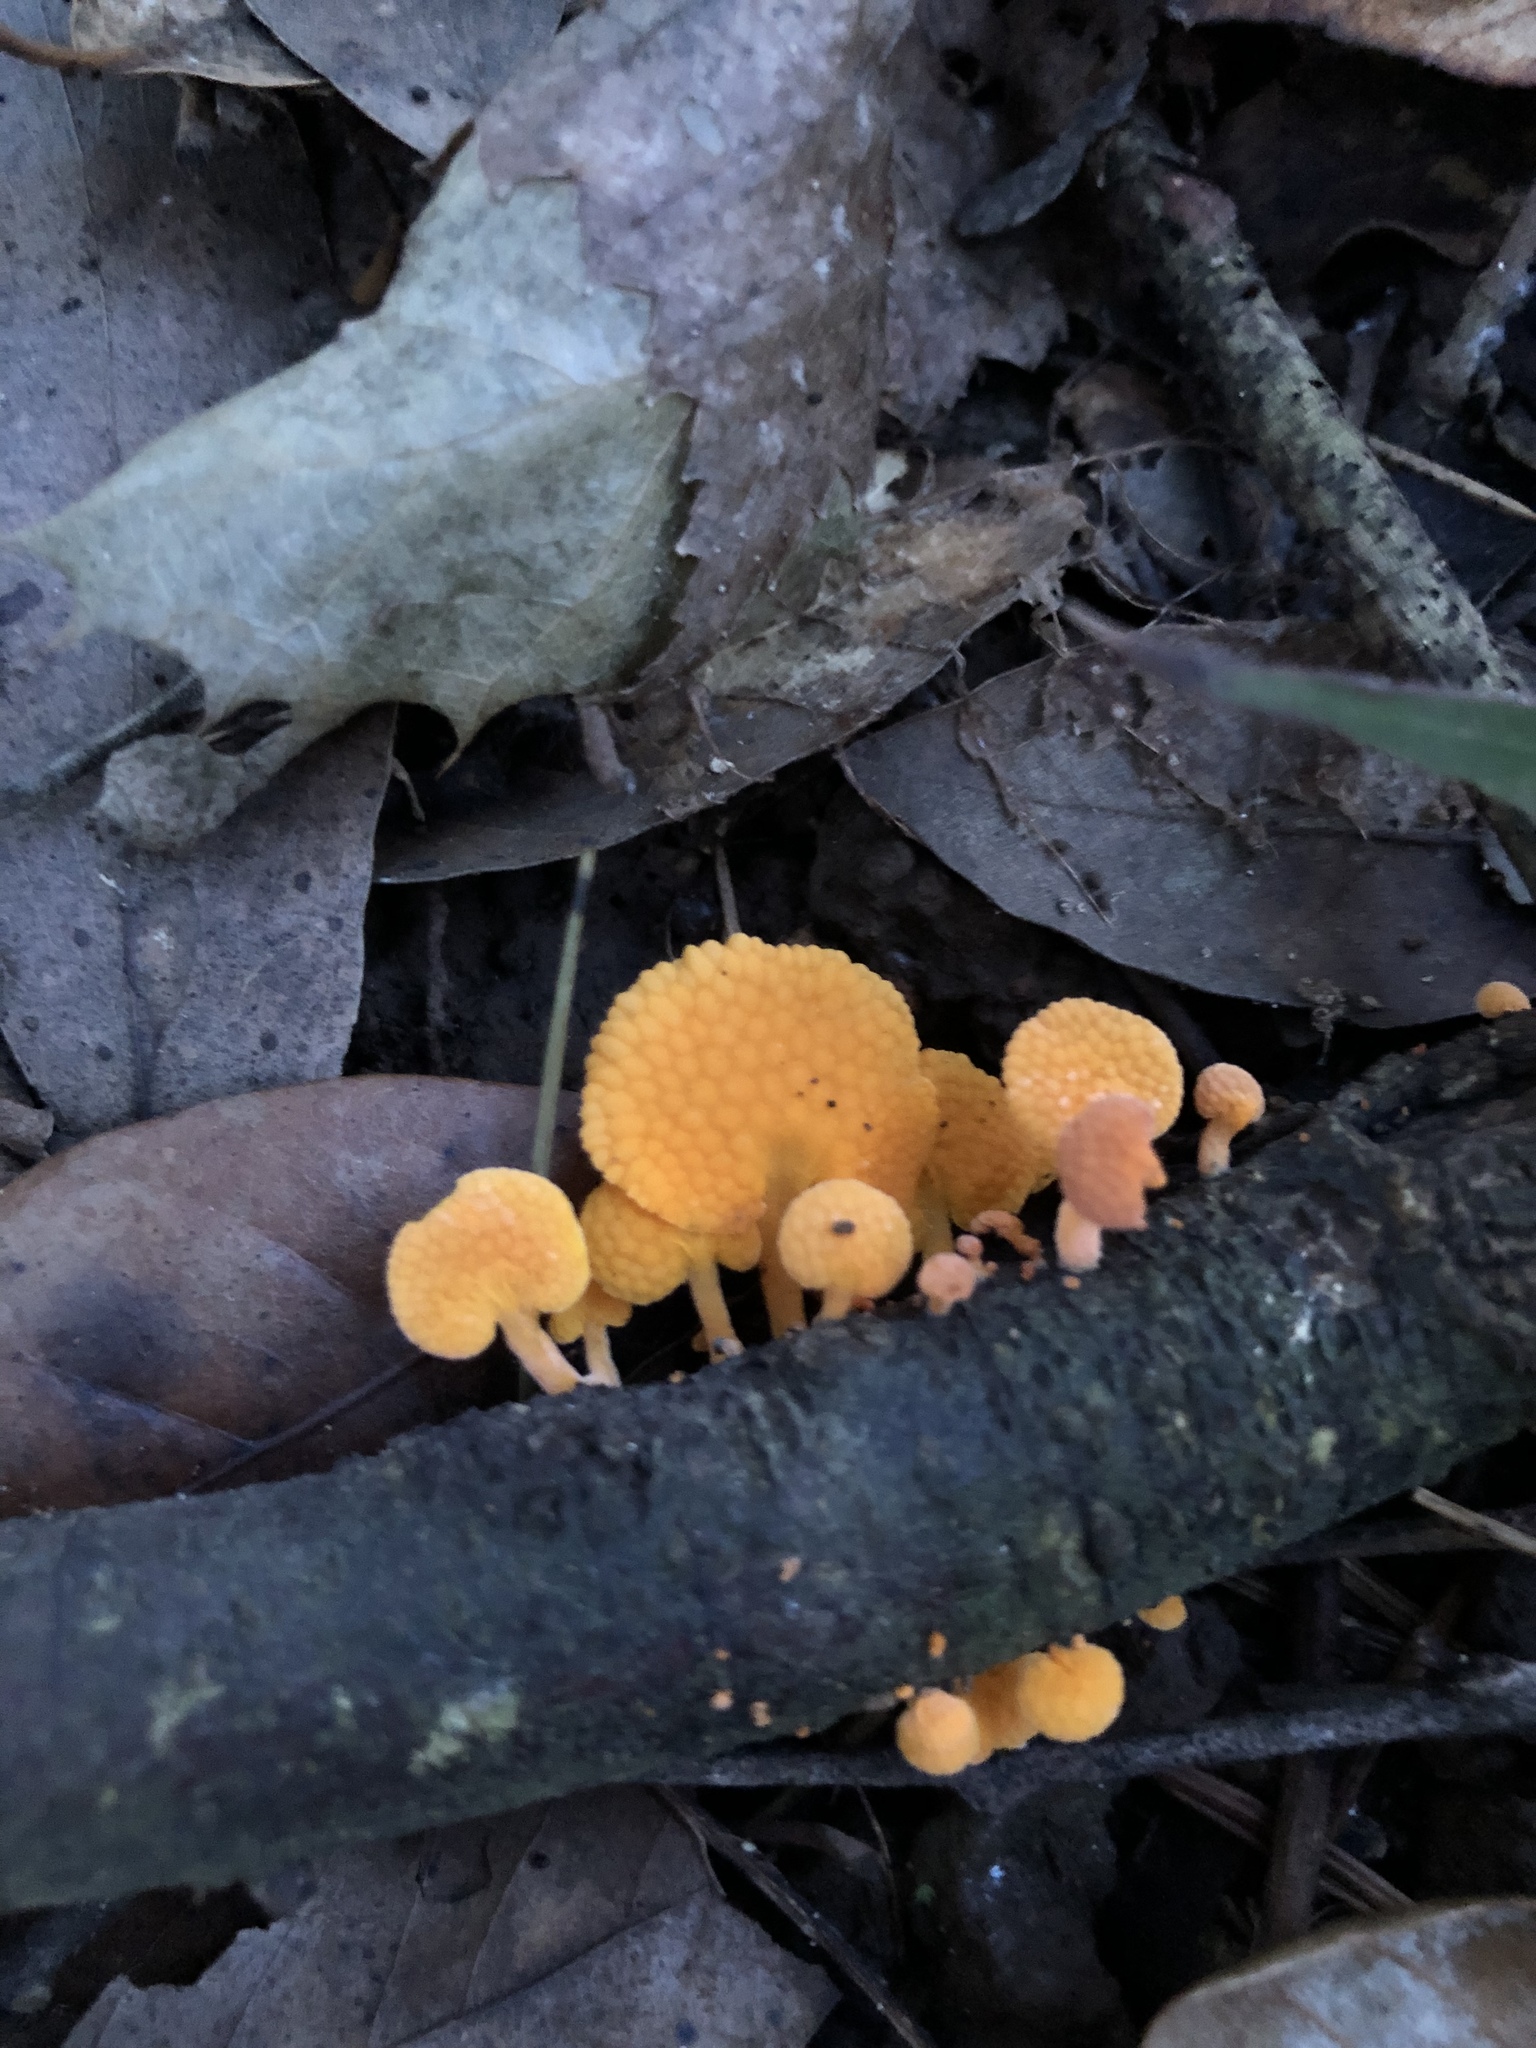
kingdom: Fungi
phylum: Basidiomycota
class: Agaricomycetes
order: Agaricales
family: Mycenaceae
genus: Favolaschia
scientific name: Favolaschia claudopus
